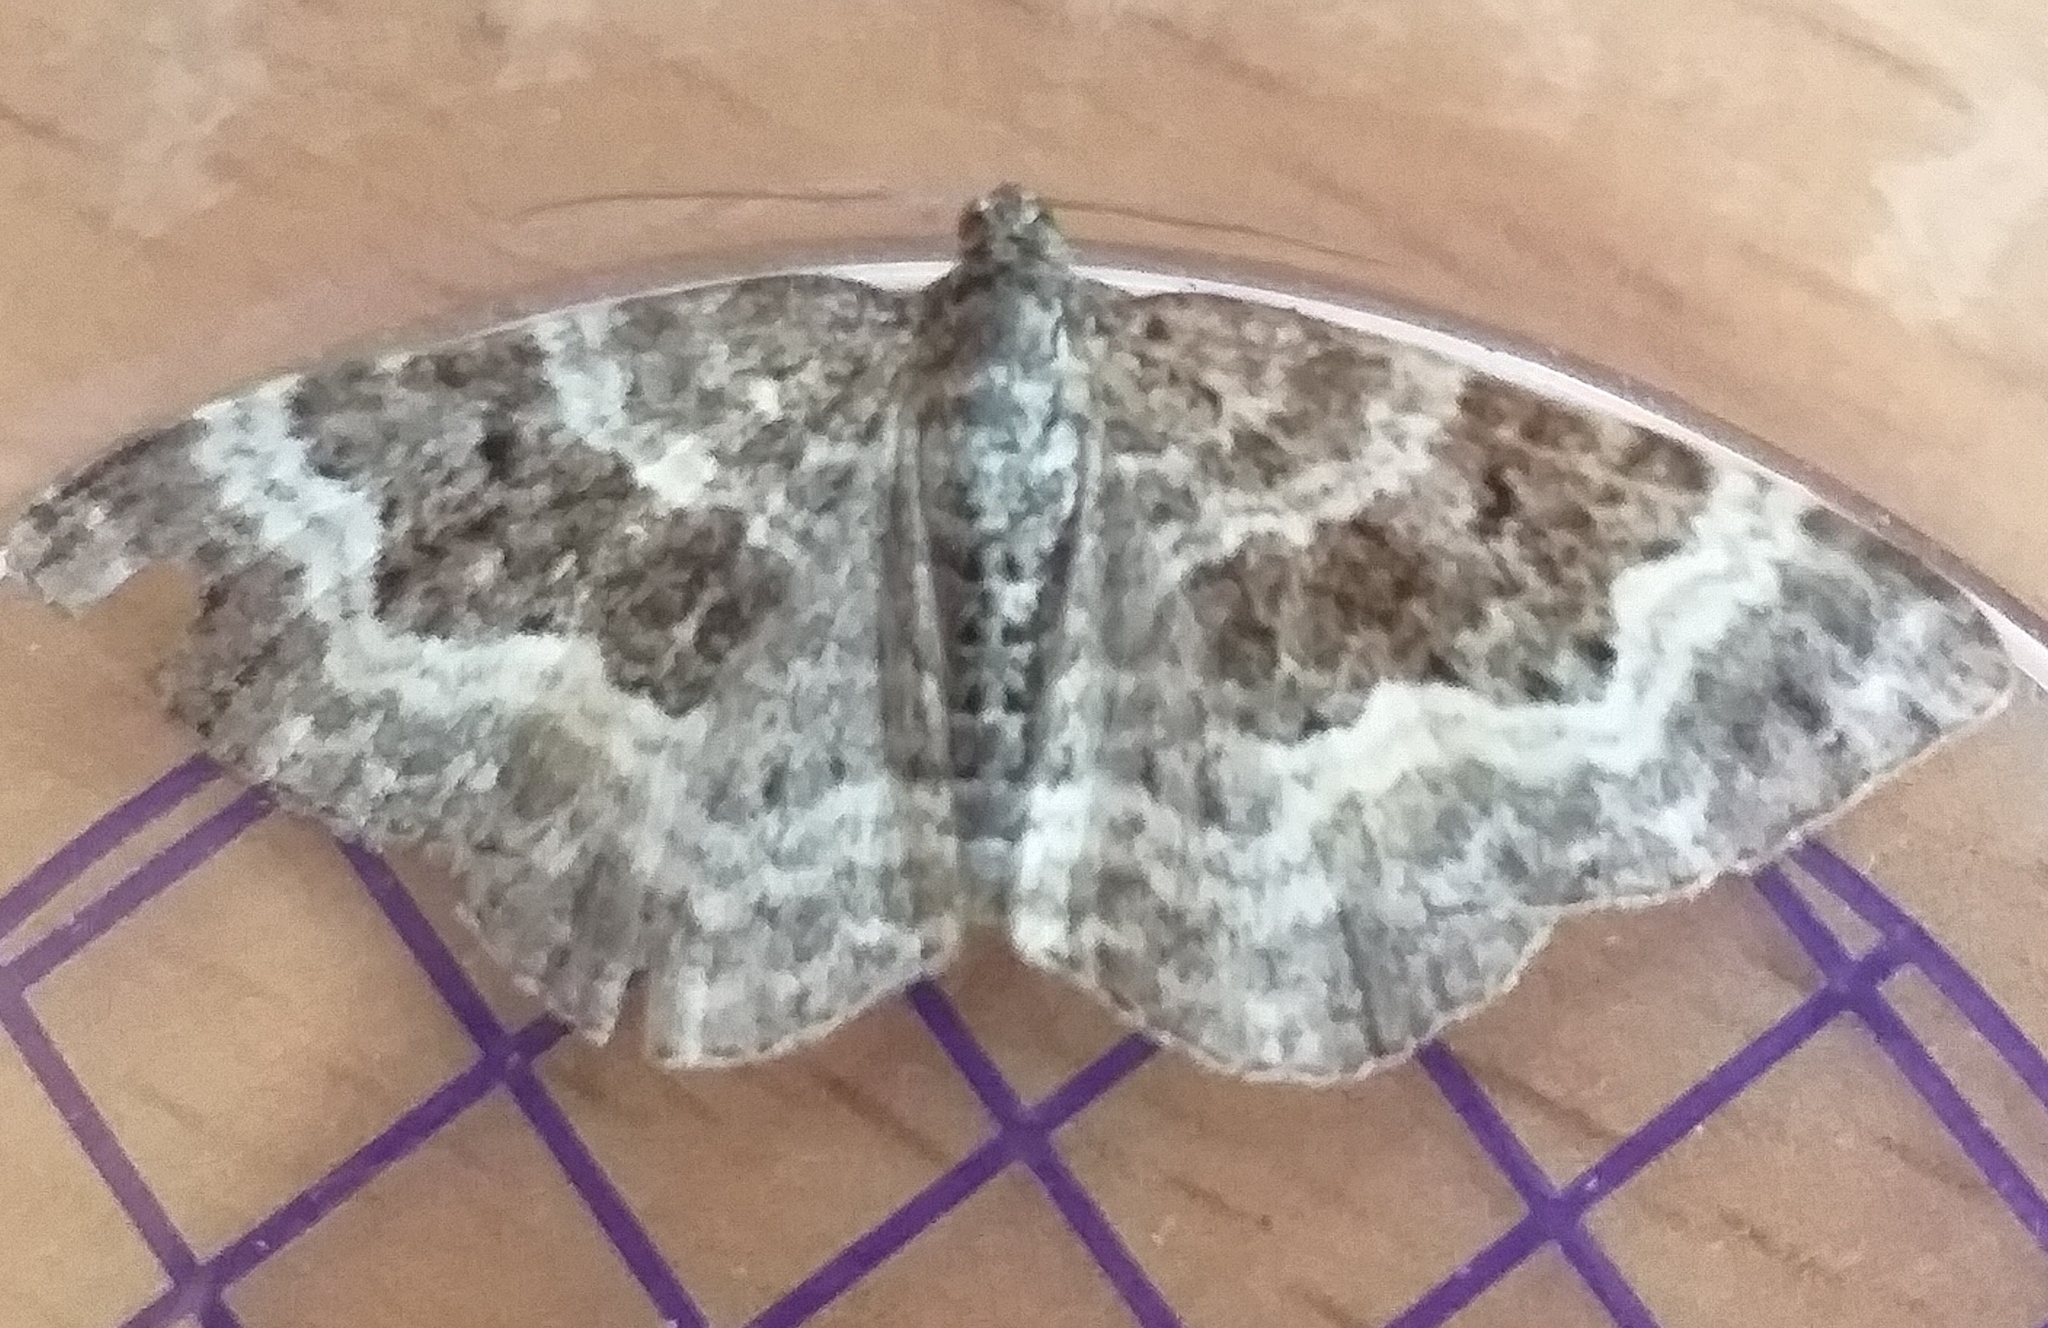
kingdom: Animalia
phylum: Arthropoda
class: Insecta
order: Lepidoptera
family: Geometridae
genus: Epirrhoe
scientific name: Epirrhoe alternata
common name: Common carpet
